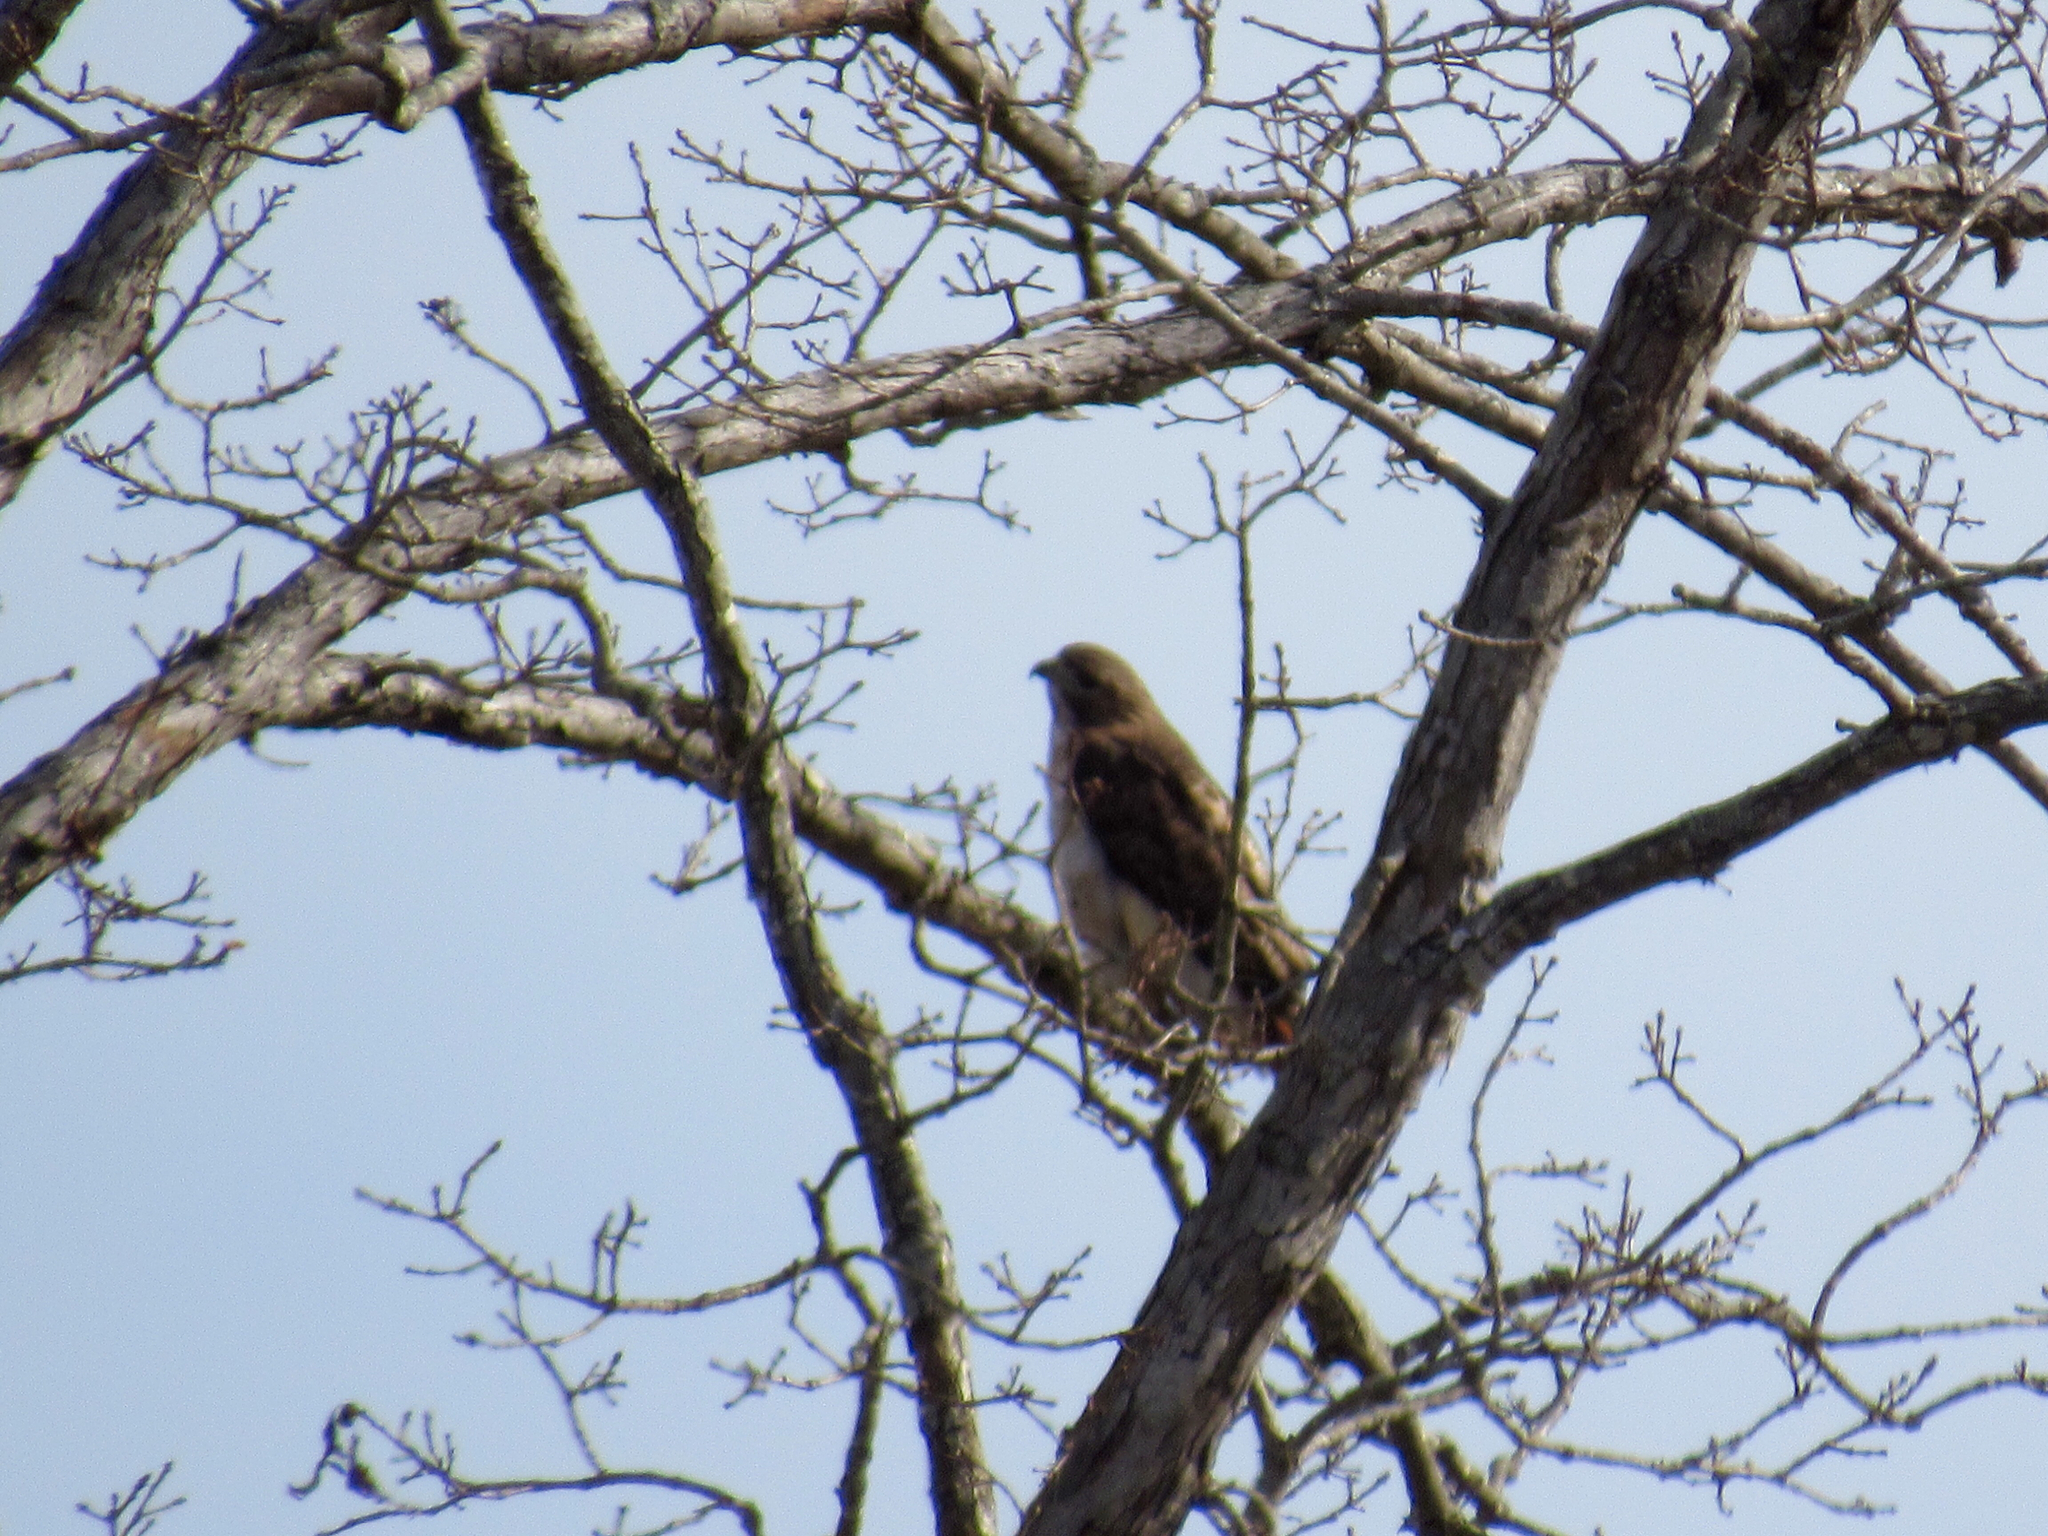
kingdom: Animalia
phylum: Chordata
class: Aves
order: Accipitriformes
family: Accipitridae
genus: Buteo
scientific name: Buteo jamaicensis
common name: Red-tailed hawk
